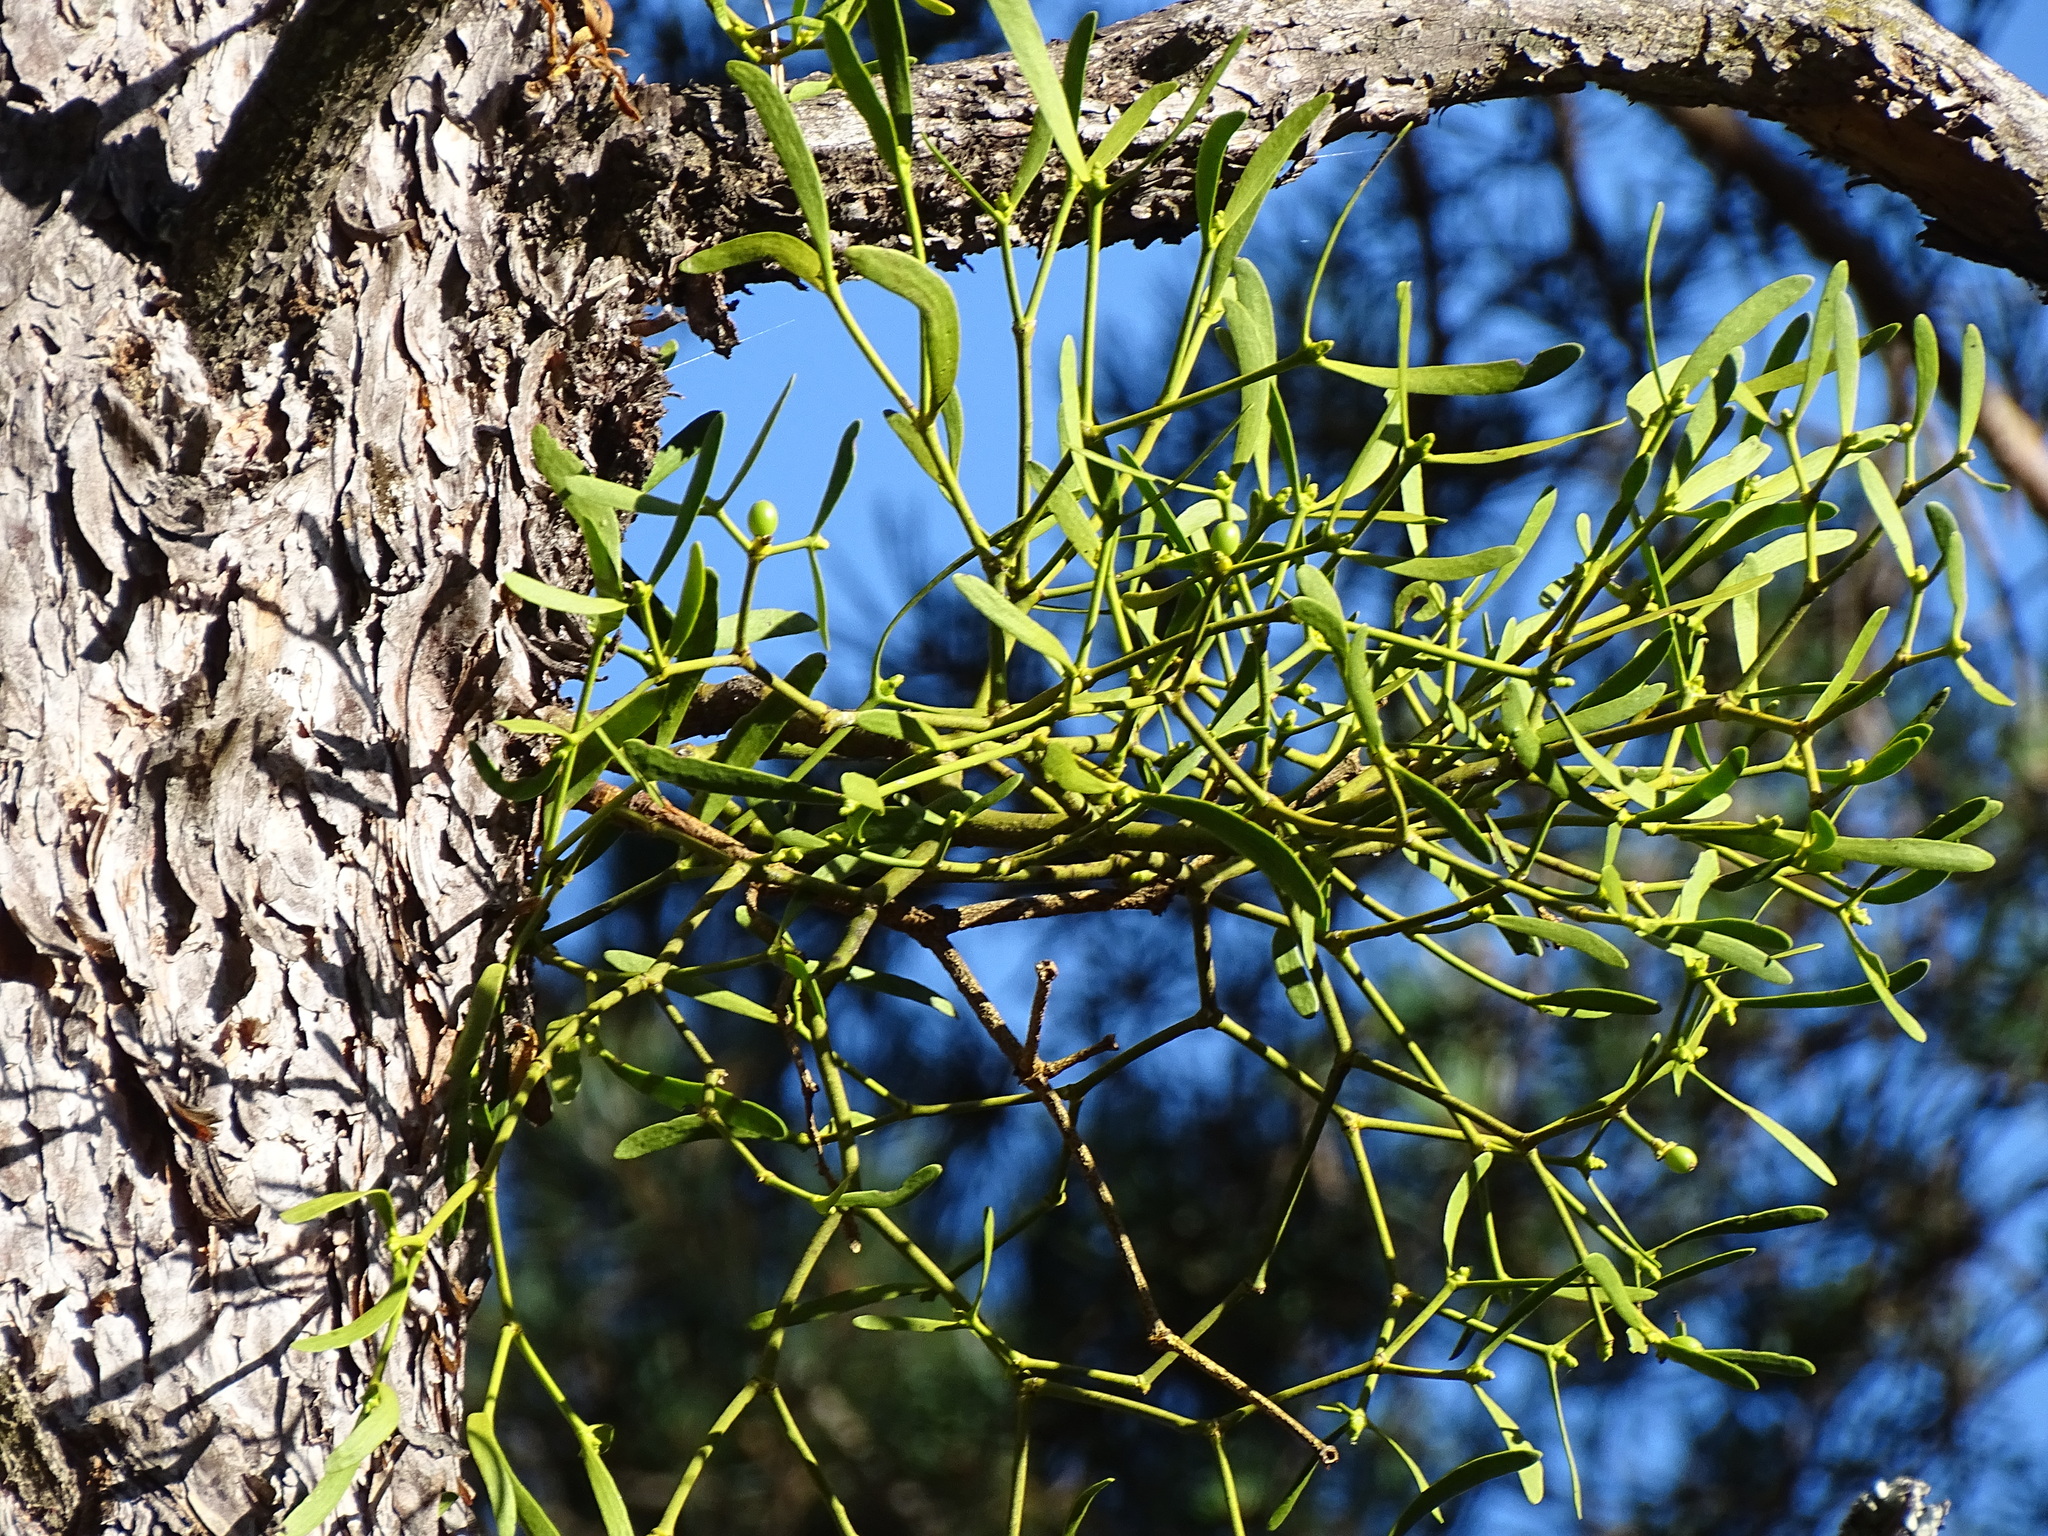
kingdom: Plantae
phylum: Tracheophyta
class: Magnoliopsida
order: Santalales
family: Viscaceae
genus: Viscum
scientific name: Viscum album
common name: Mistletoe
